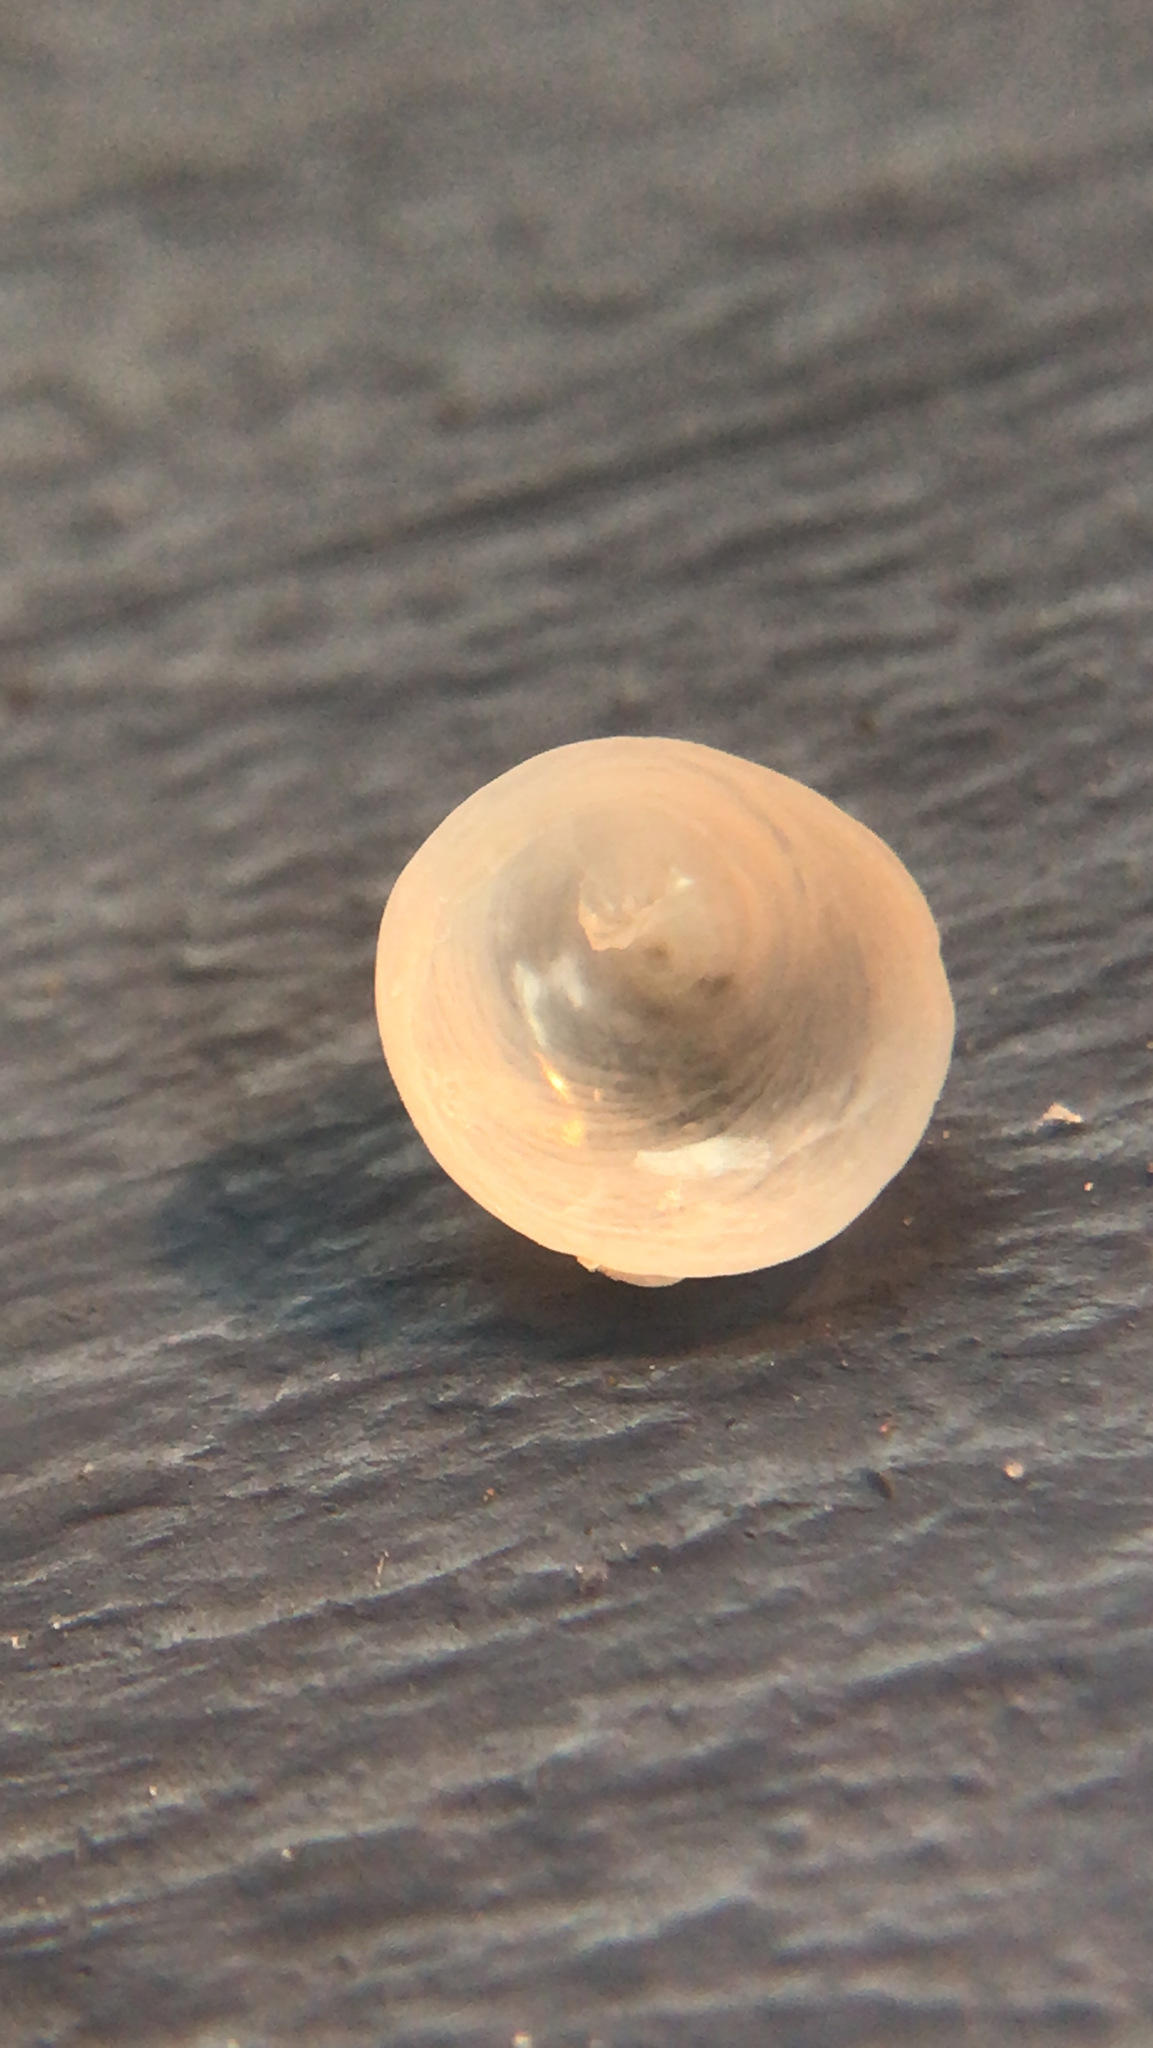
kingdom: Animalia
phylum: Mollusca
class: Gastropoda
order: Littorinimorpha
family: Calyptraeidae
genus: Calyptraea
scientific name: Calyptraea centralis
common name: Circular chinese hat
